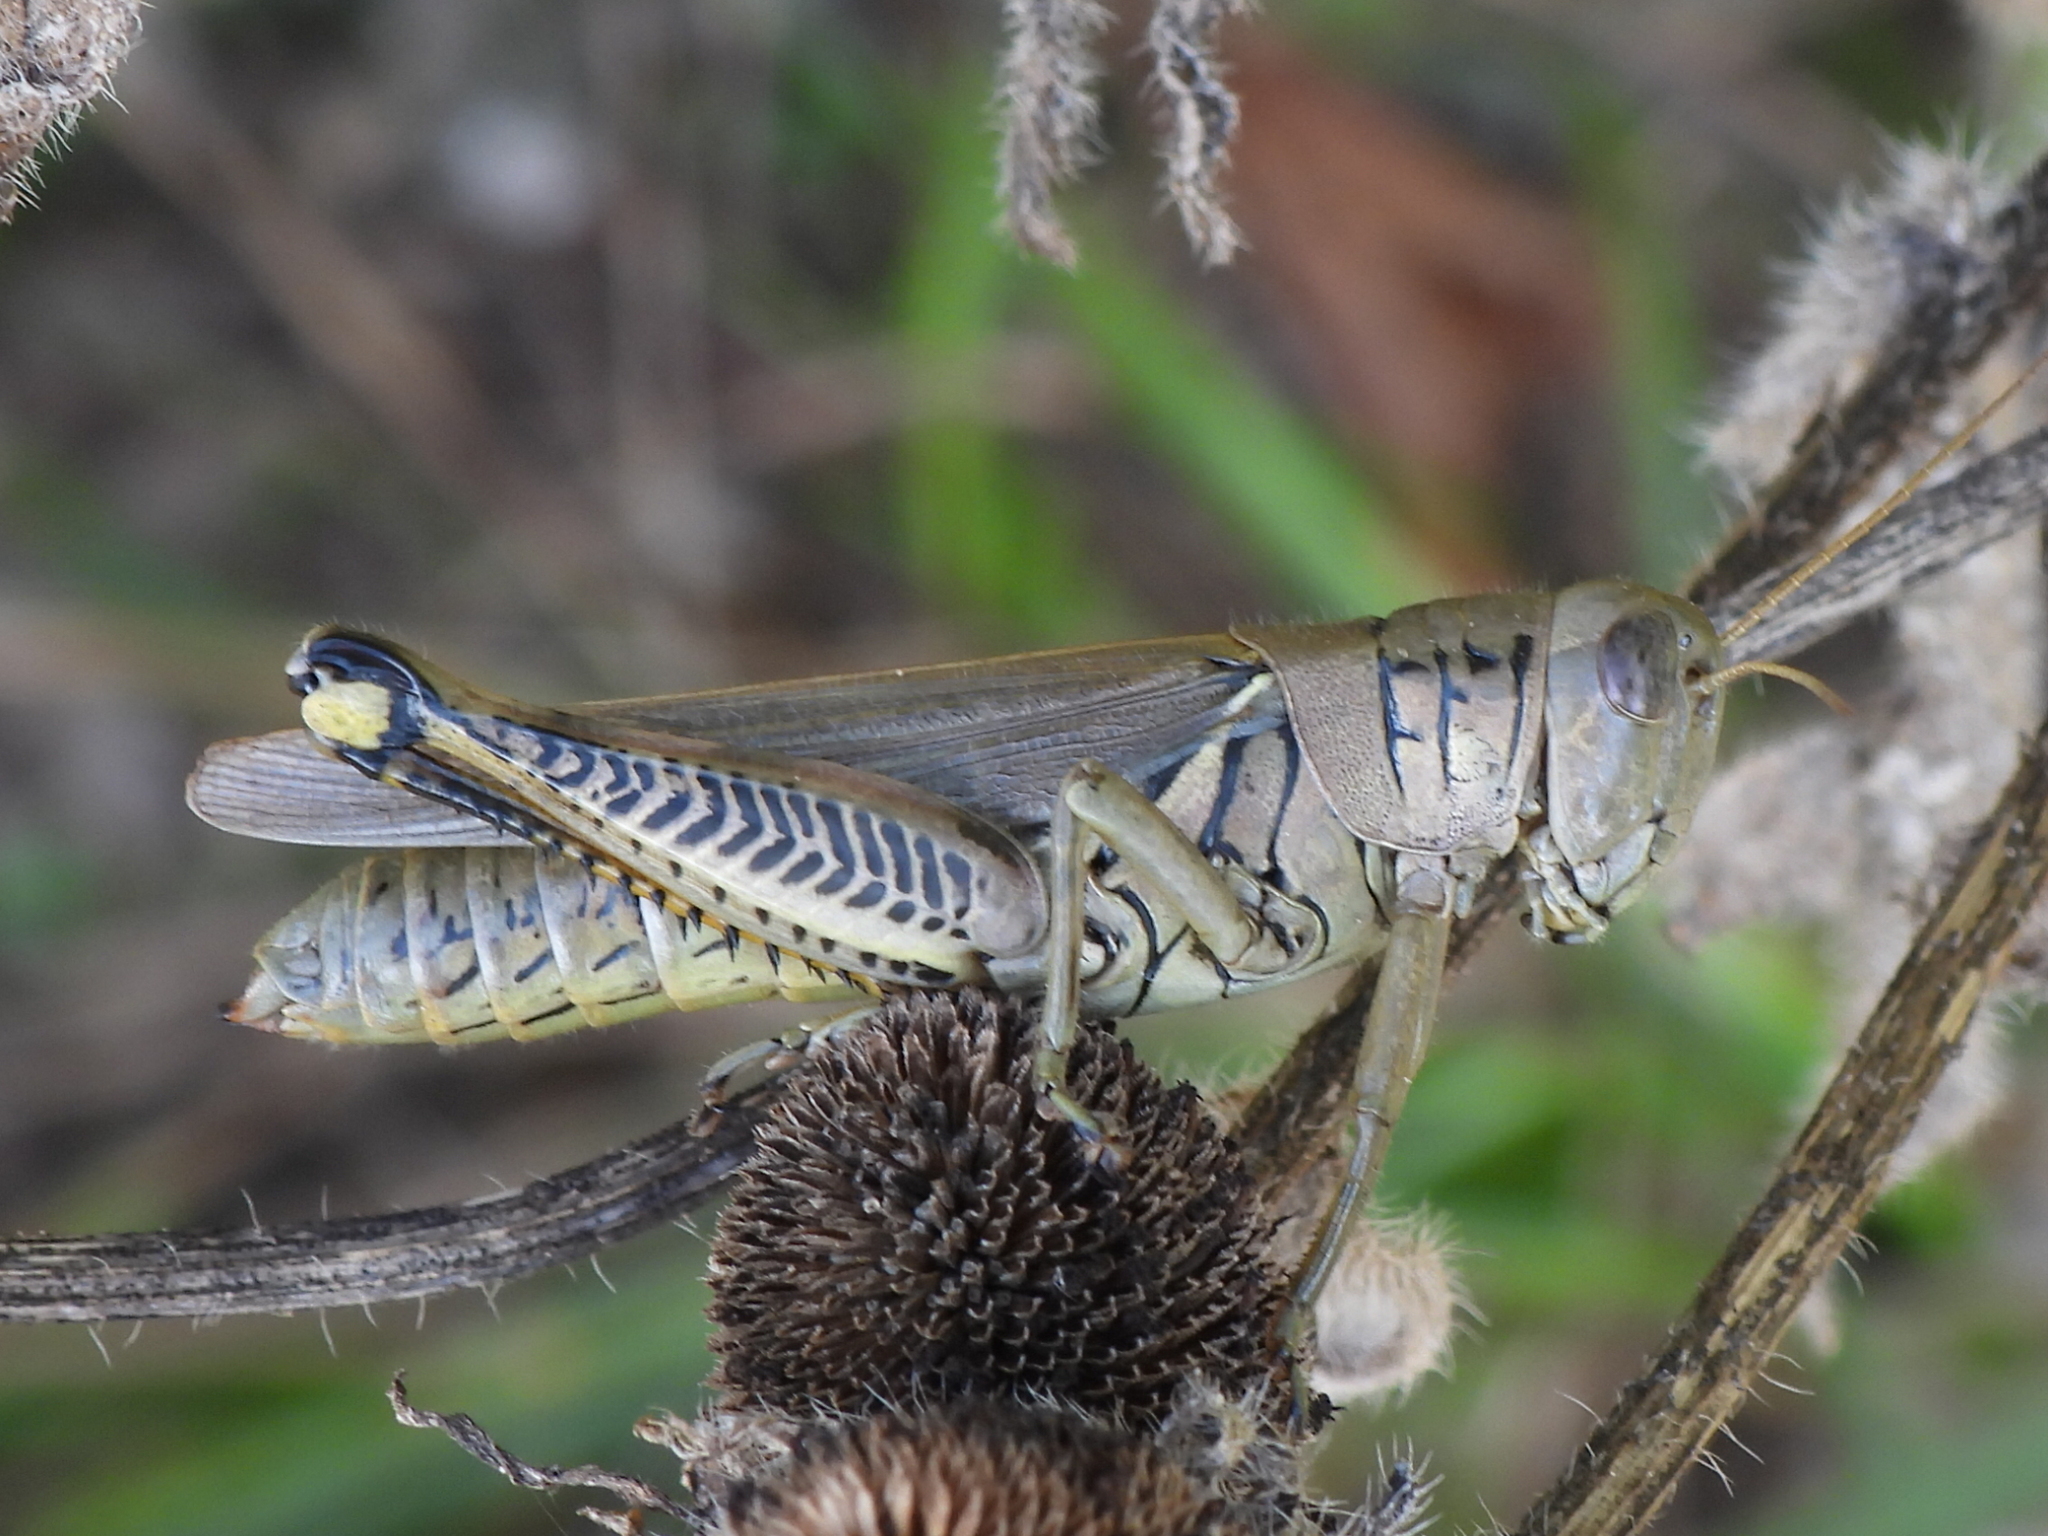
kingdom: Animalia
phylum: Arthropoda
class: Insecta
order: Orthoptera
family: Acrididae
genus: Melanoplus
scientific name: Melanoplus differentialis
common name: Differential grasshopper
